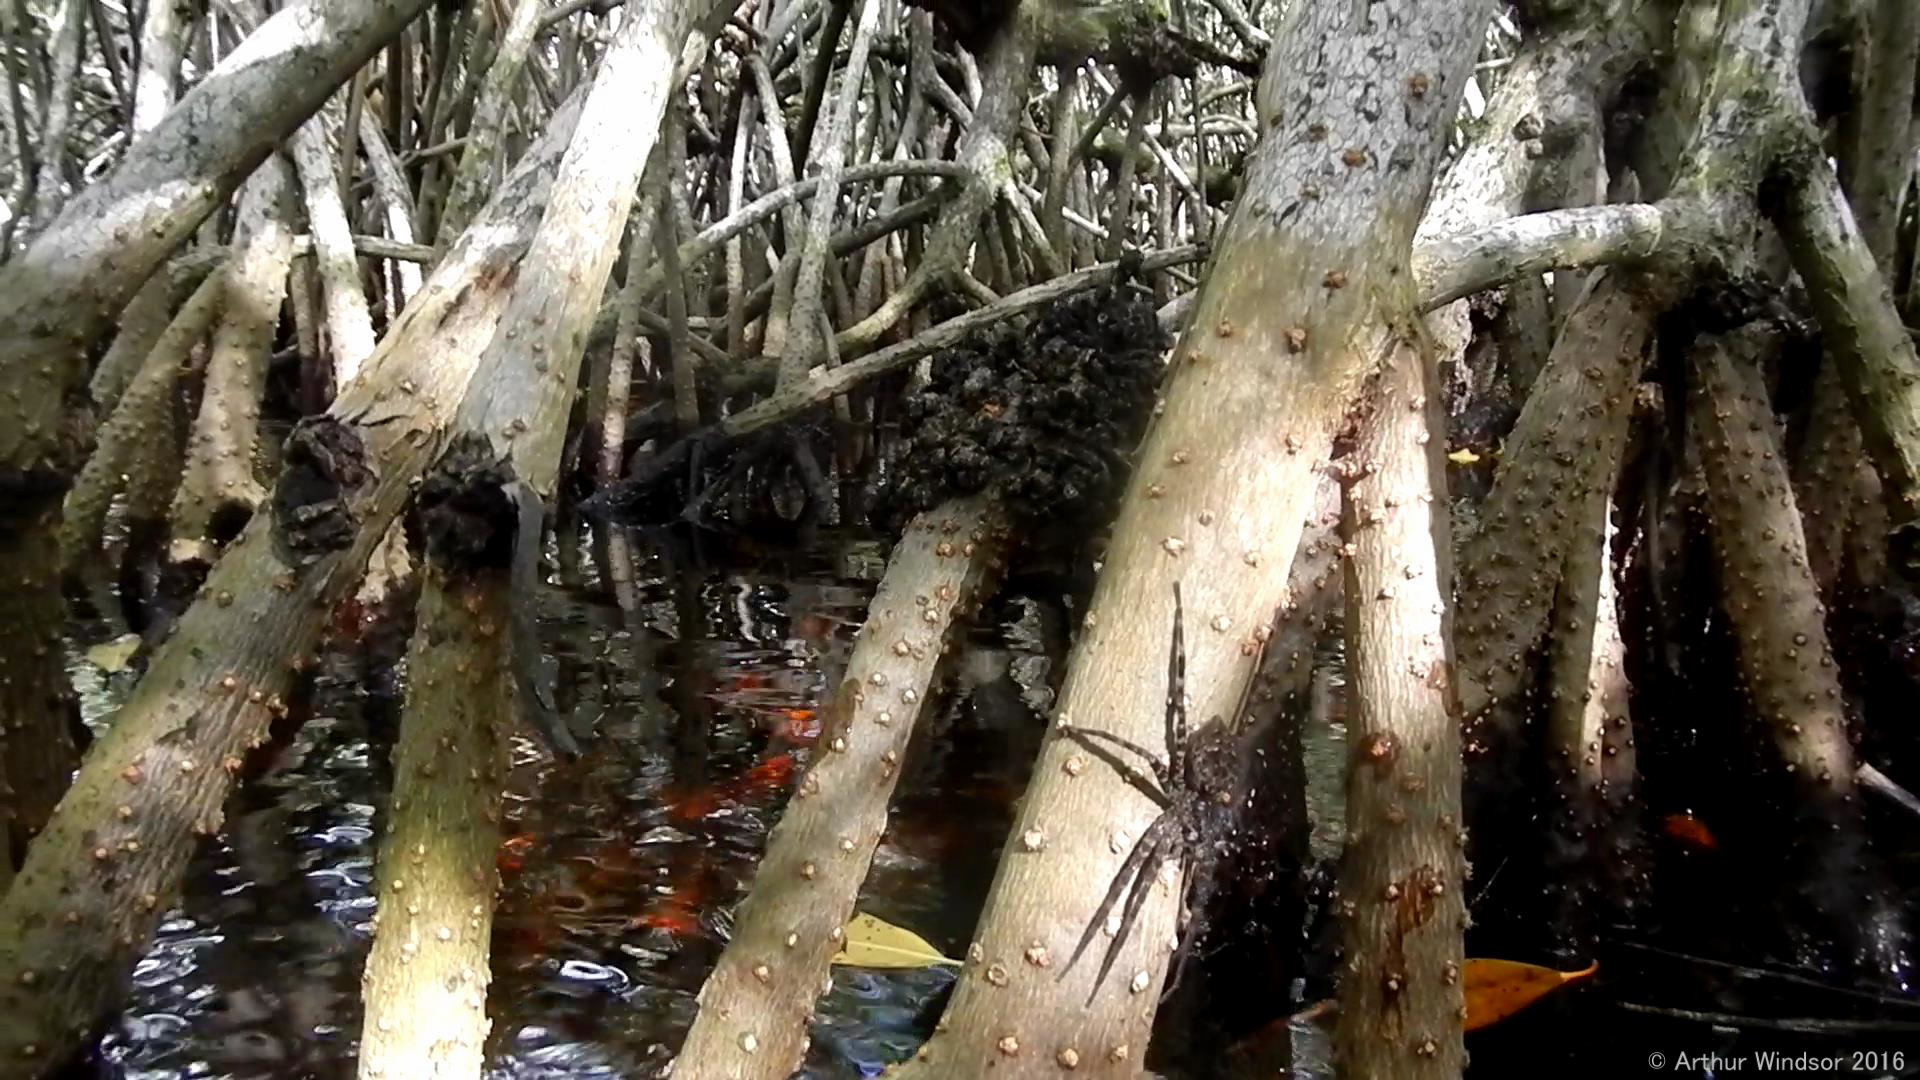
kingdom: Animalia
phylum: Arthropoda
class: Arachnida
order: Araneae
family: Pisauridae
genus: Dolomedes
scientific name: Dolomedes okefinokensis
